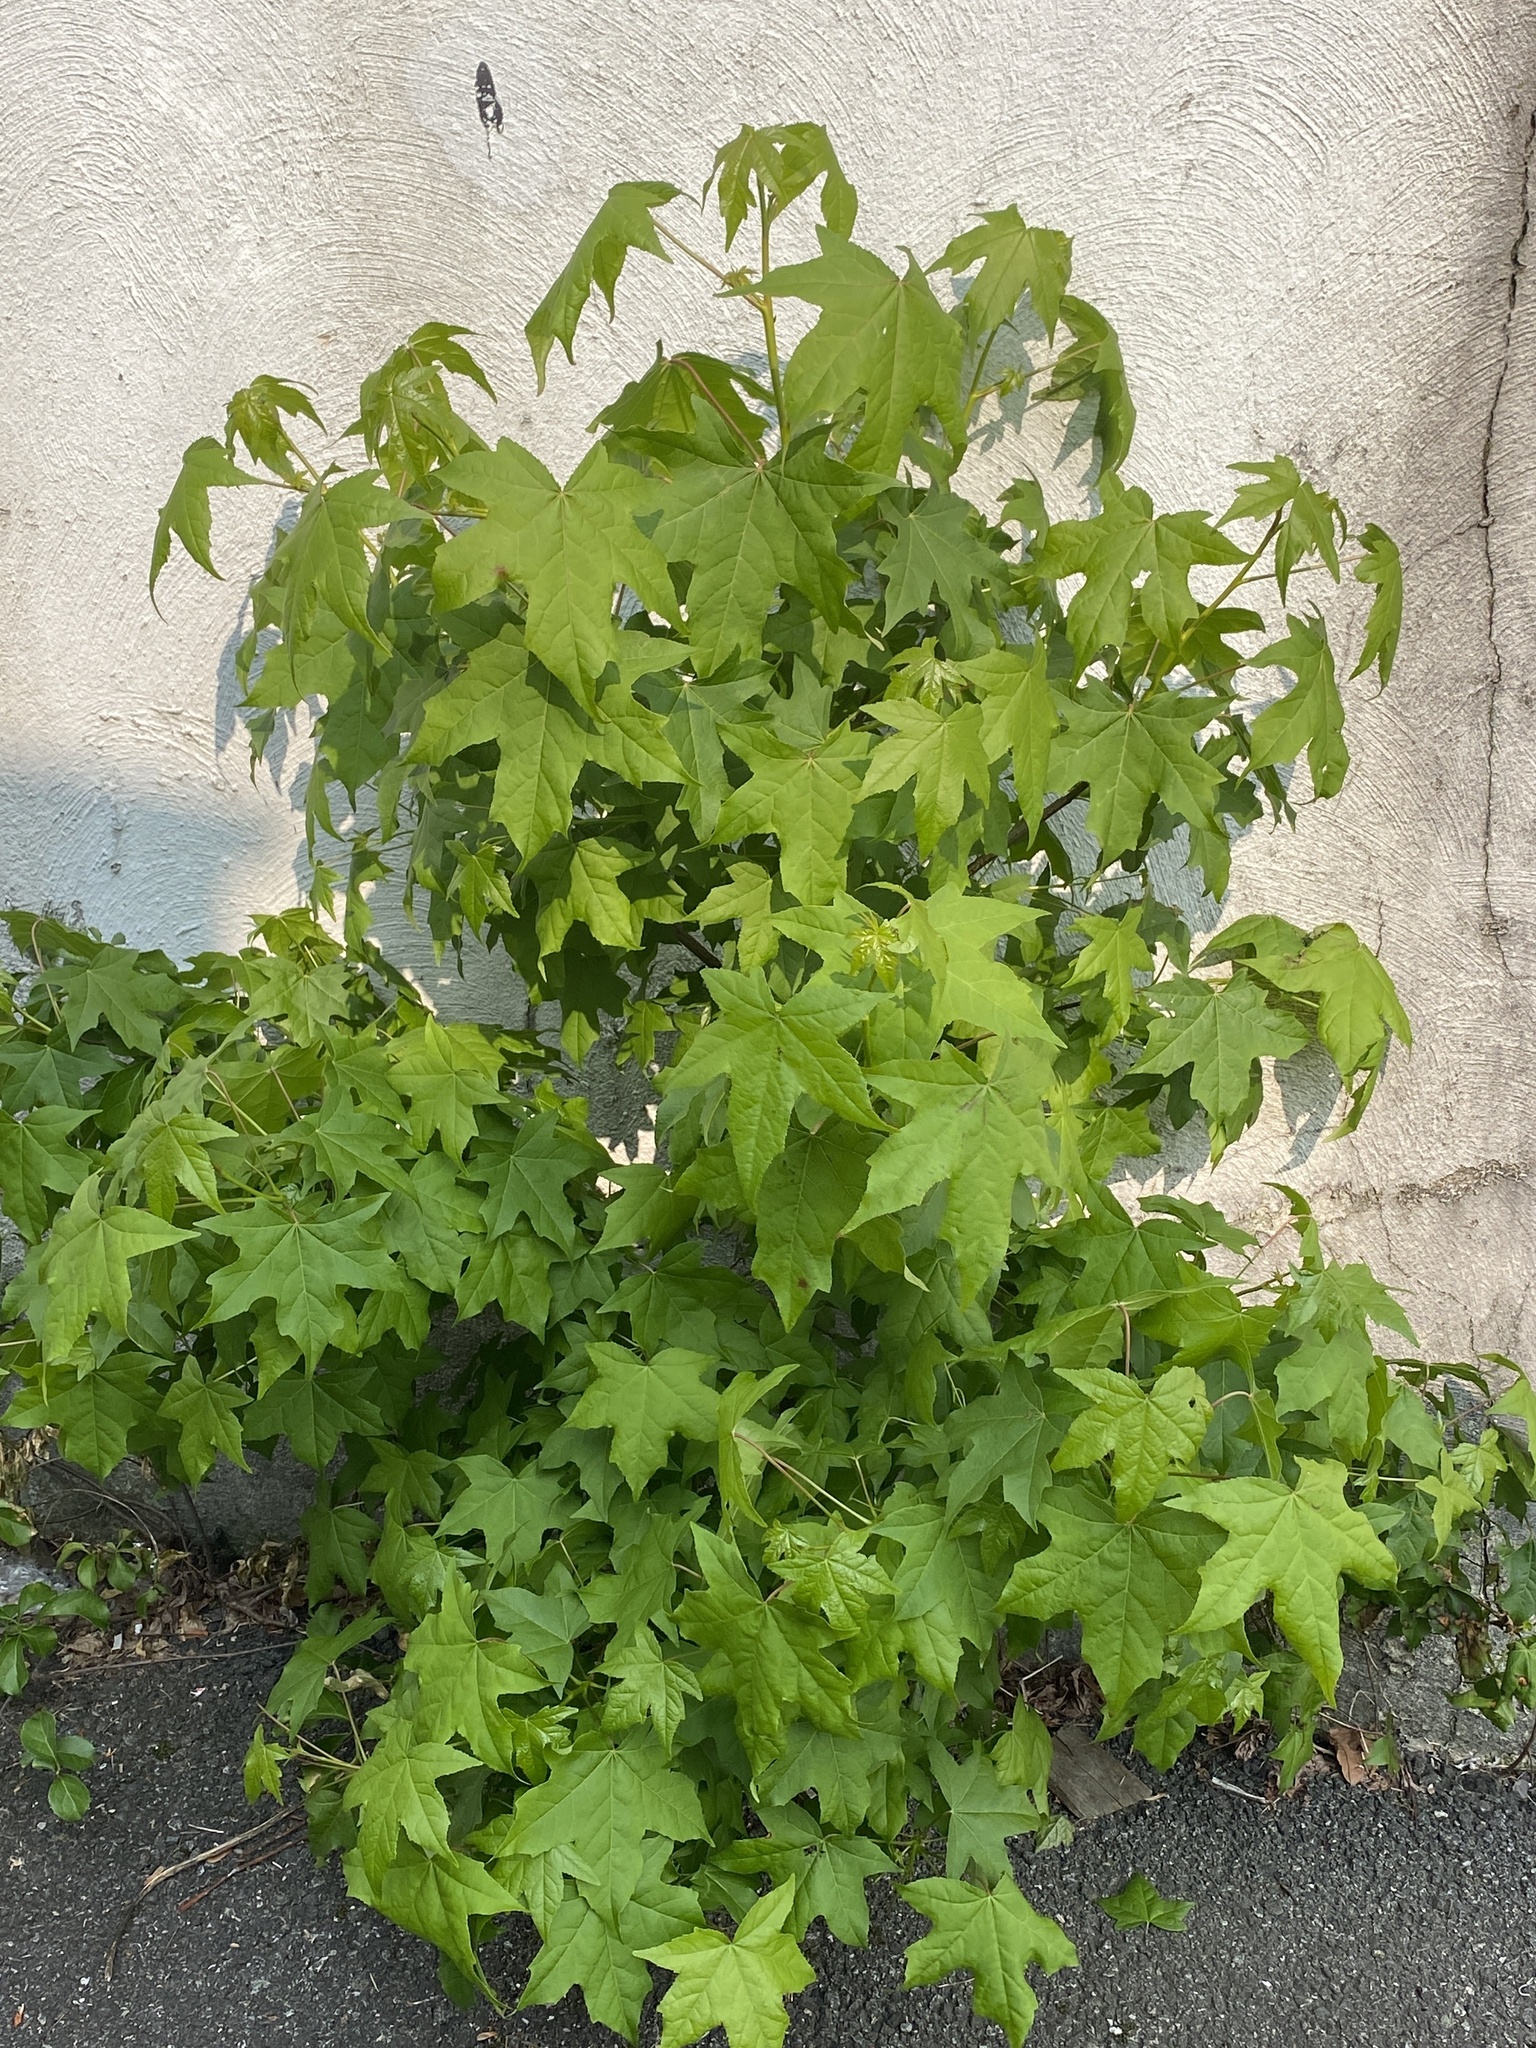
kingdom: Plantae
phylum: Tracheophyta
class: Magnoliopsida
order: Saxifragales
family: Altingiaceae
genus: Liquidambar
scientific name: Liquidambar styraciflua
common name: Sweet gum
